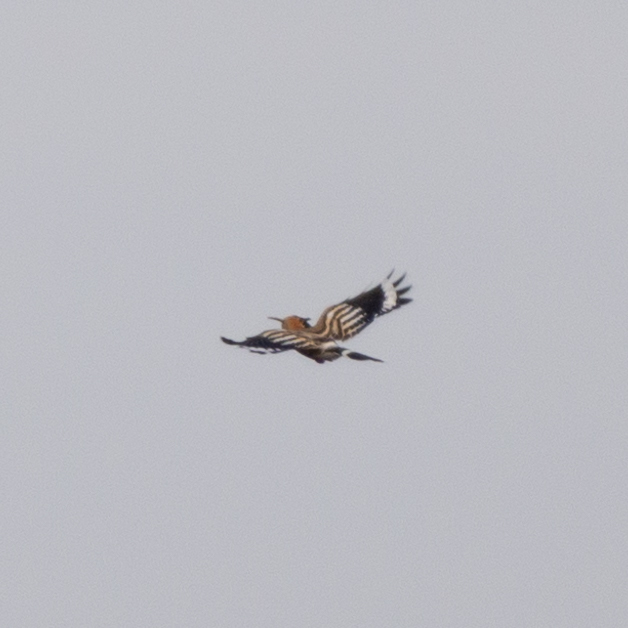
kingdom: Animalia
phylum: Chordata
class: Aves
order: Bucerotiformes
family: Upupidae
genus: Upupa
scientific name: Upupa epops
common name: Eurasian hoopoe
